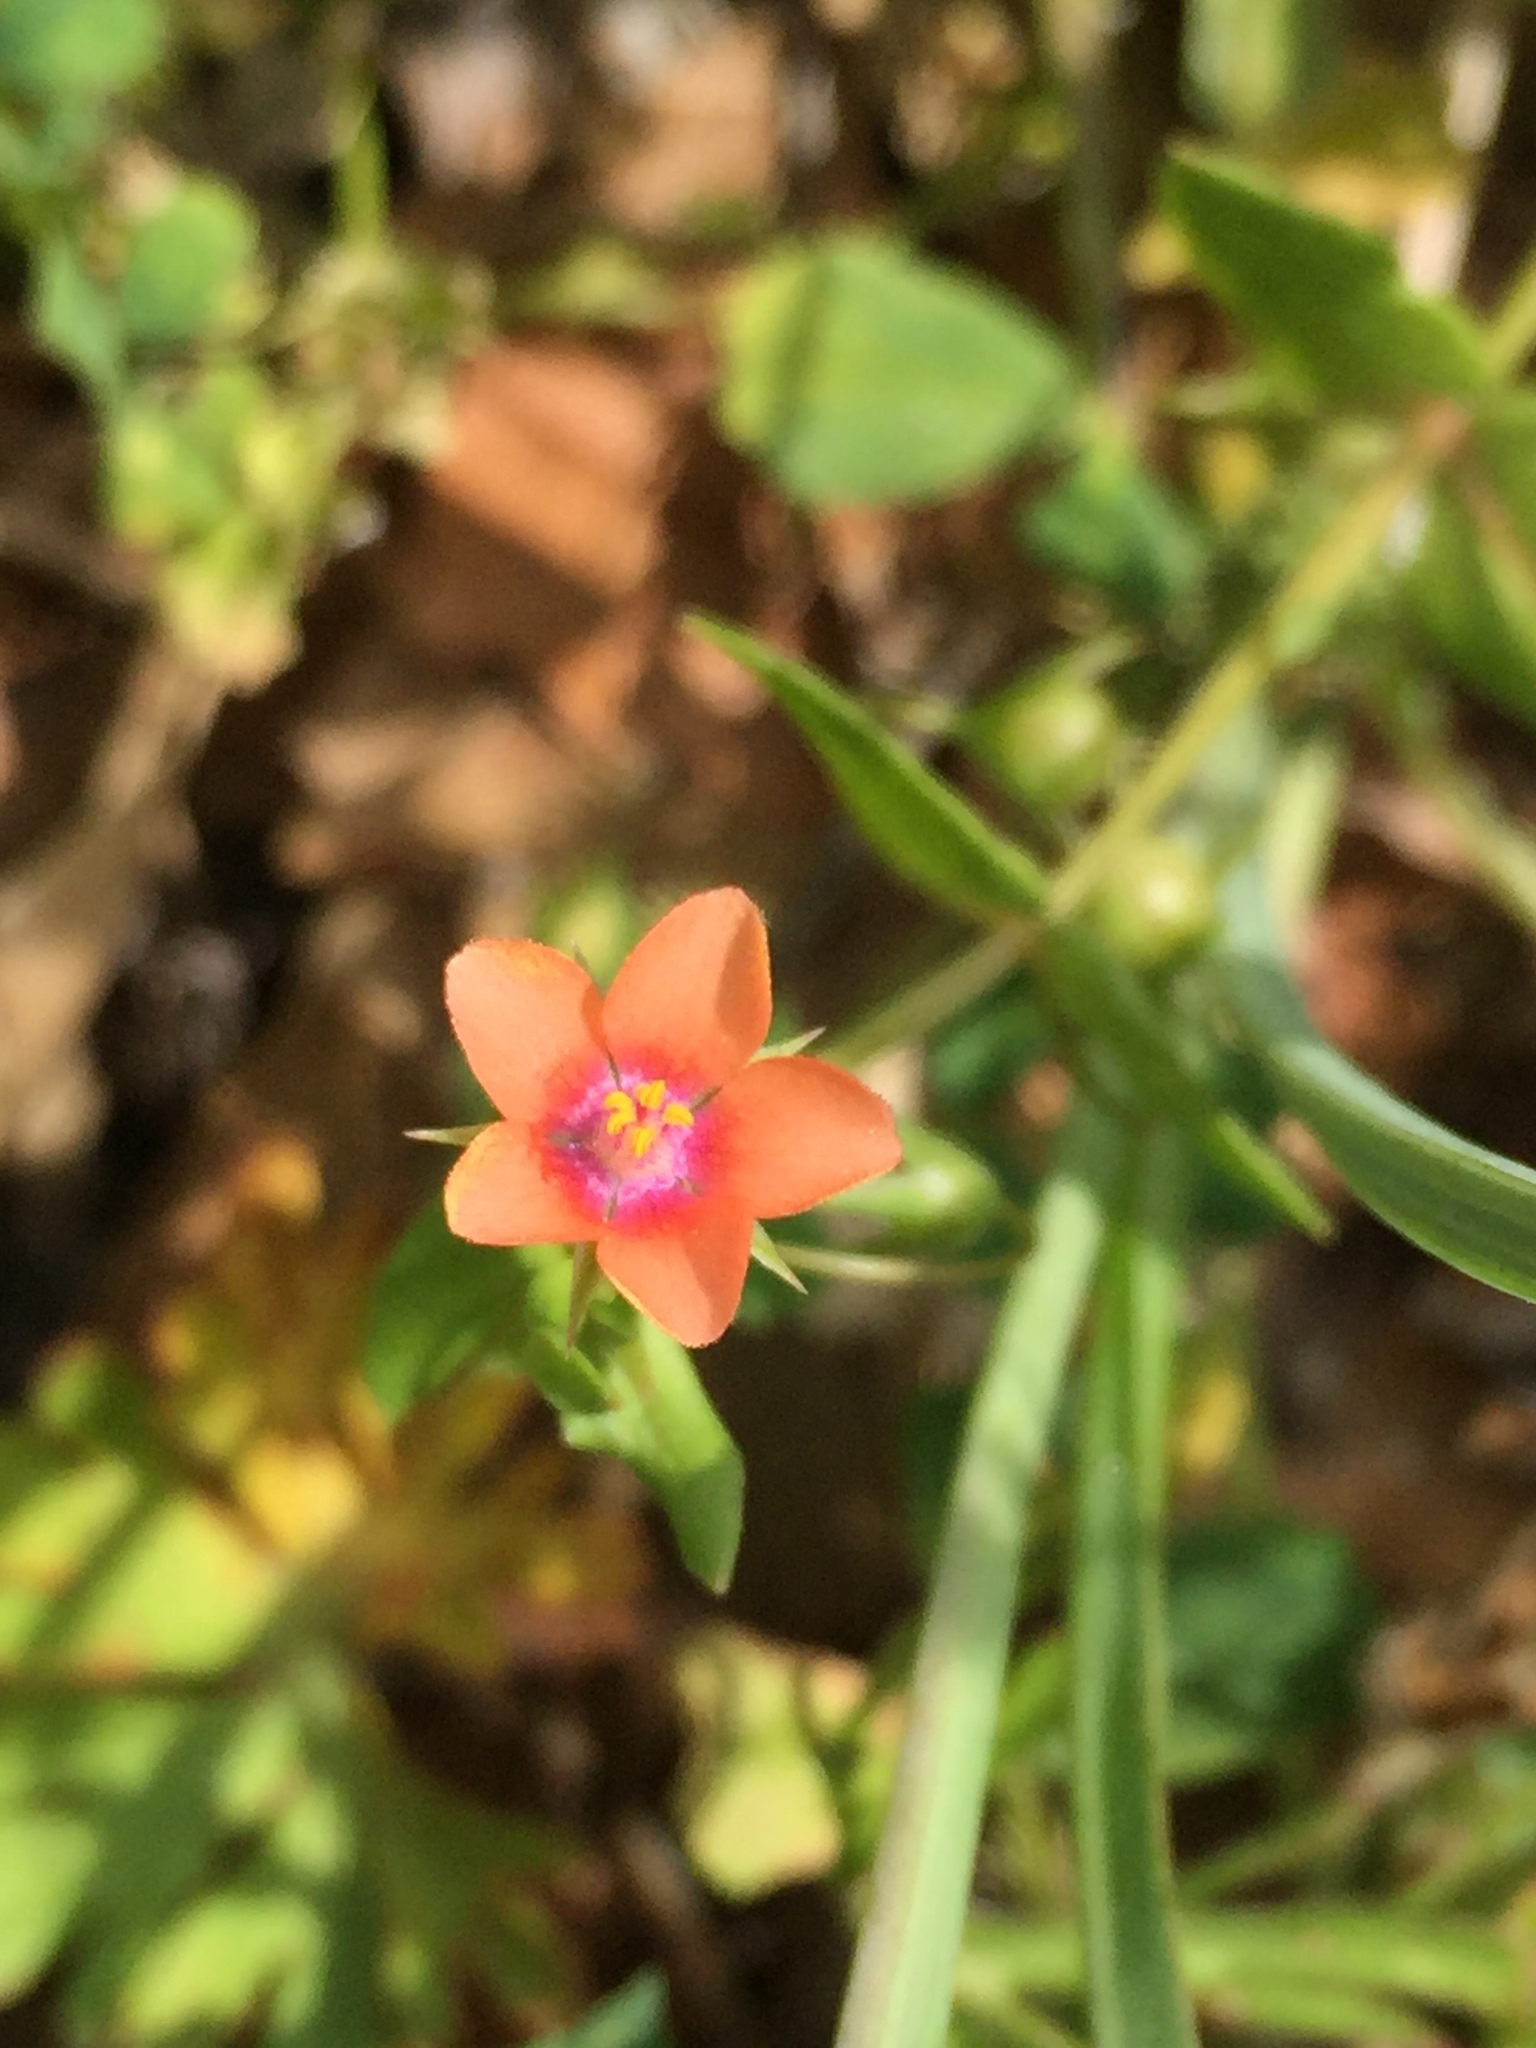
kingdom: Plantae
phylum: Tracheophyta
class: Magnoliopsida
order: Ericales
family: Primulaceae
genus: Lysimachia
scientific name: Lysimachia arvensis
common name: Scarlet pimpernel
